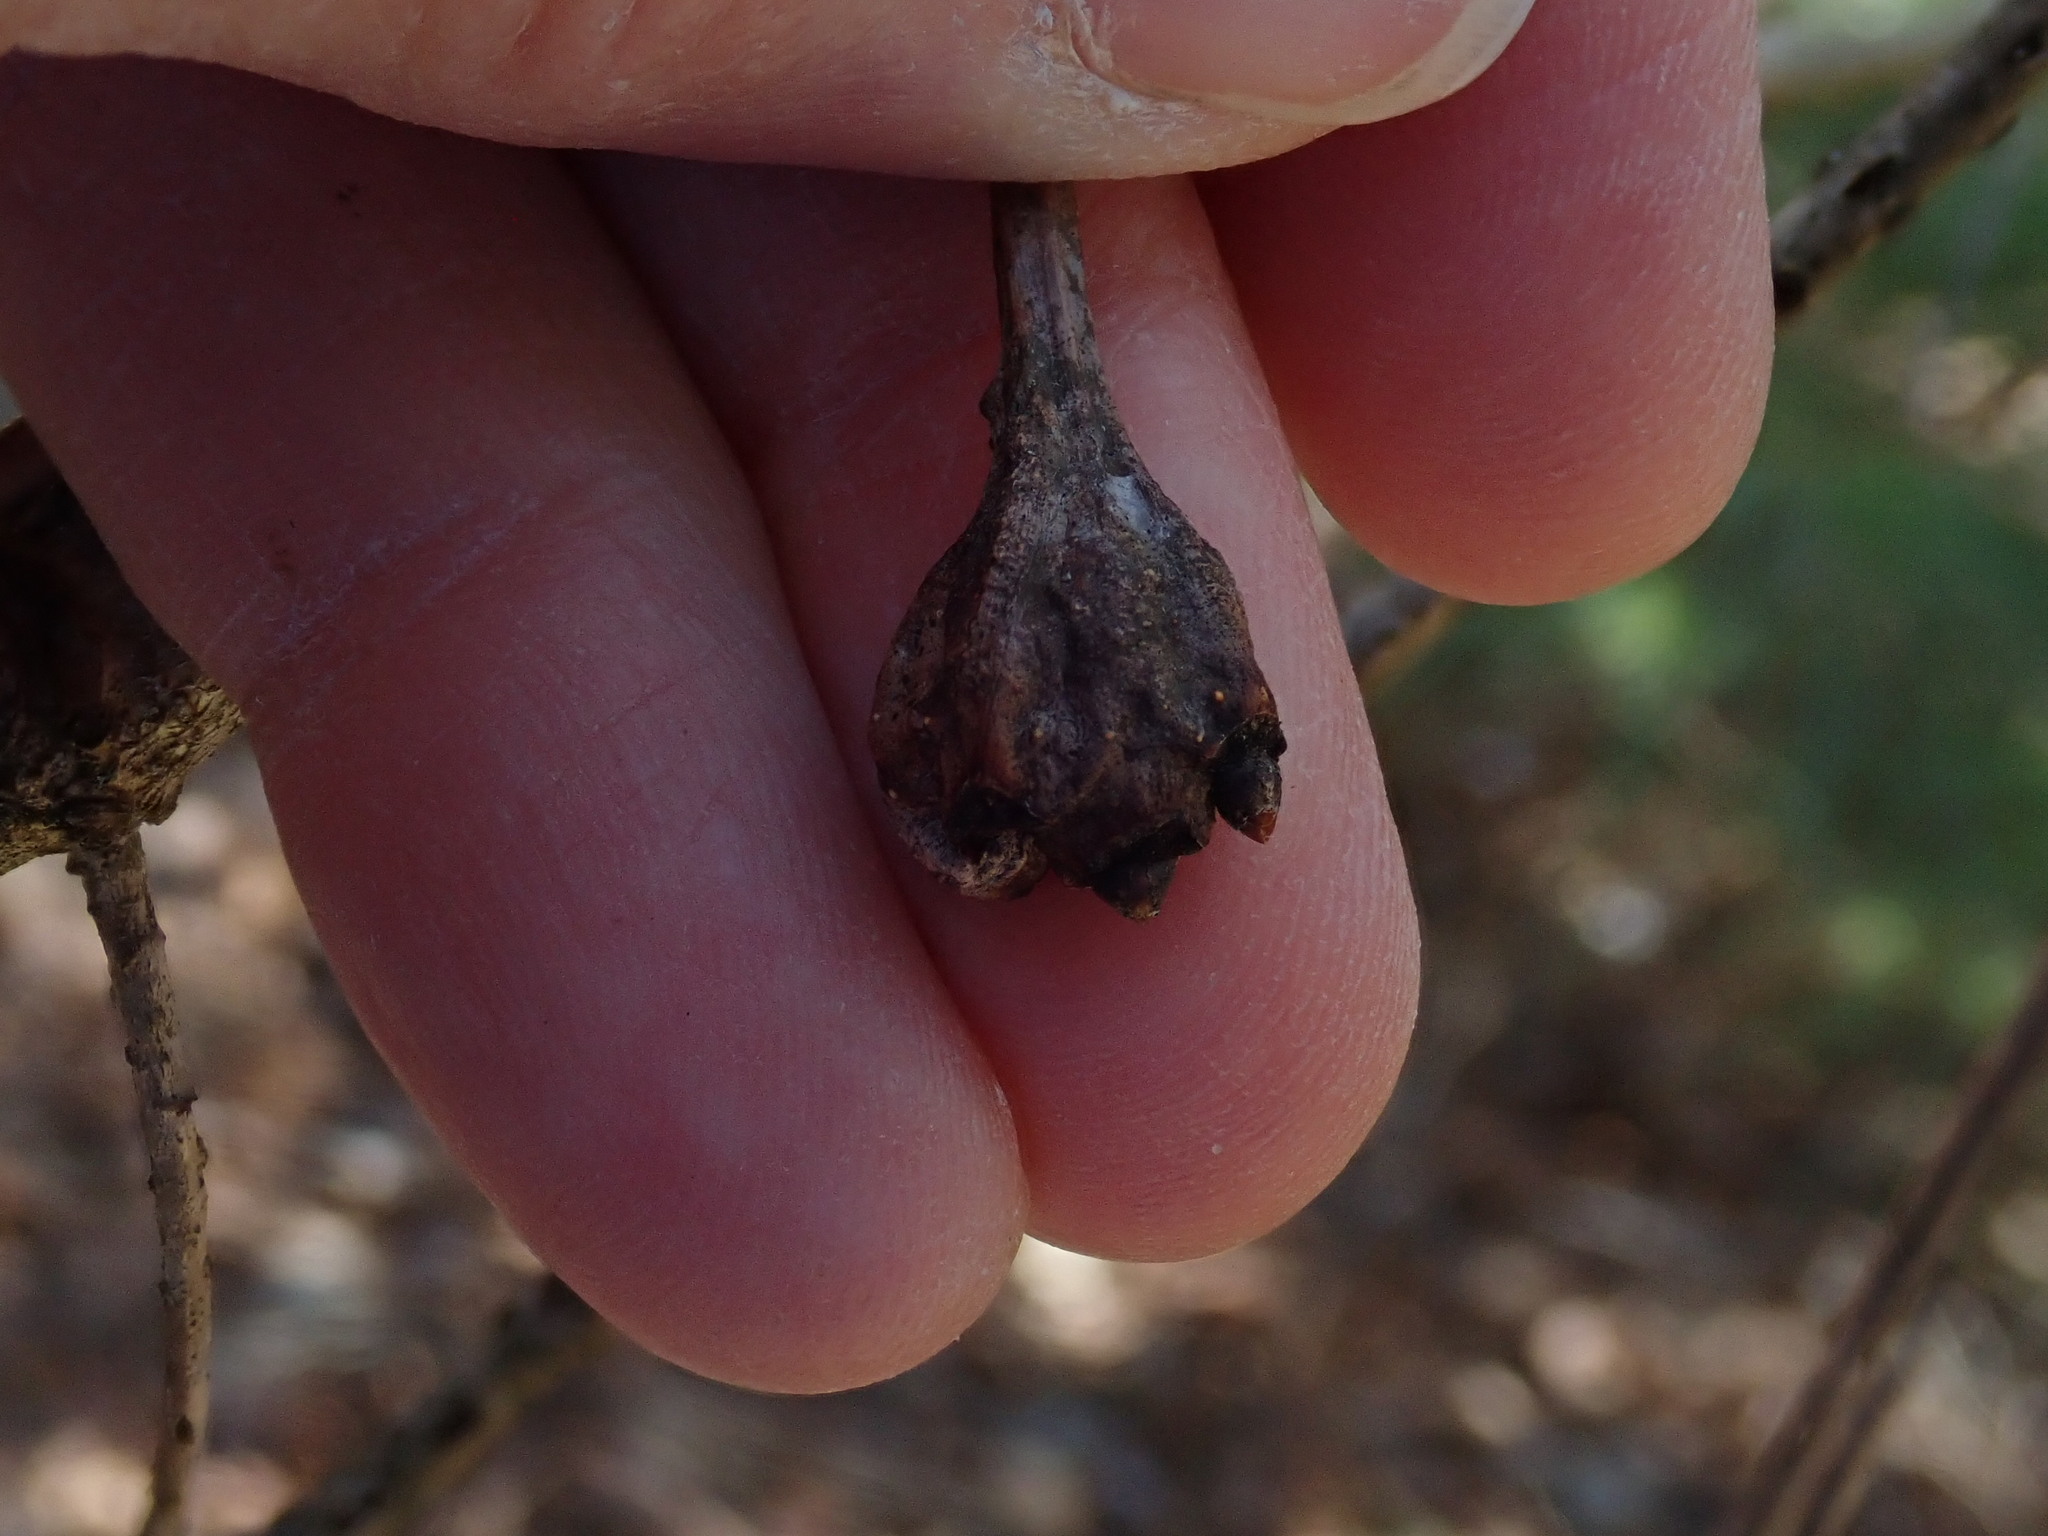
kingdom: Animalia
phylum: Arthropoda
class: Insecta
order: Hymenoptera
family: Cynipidae
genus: Callirhytis
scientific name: Callirhytis clavula
